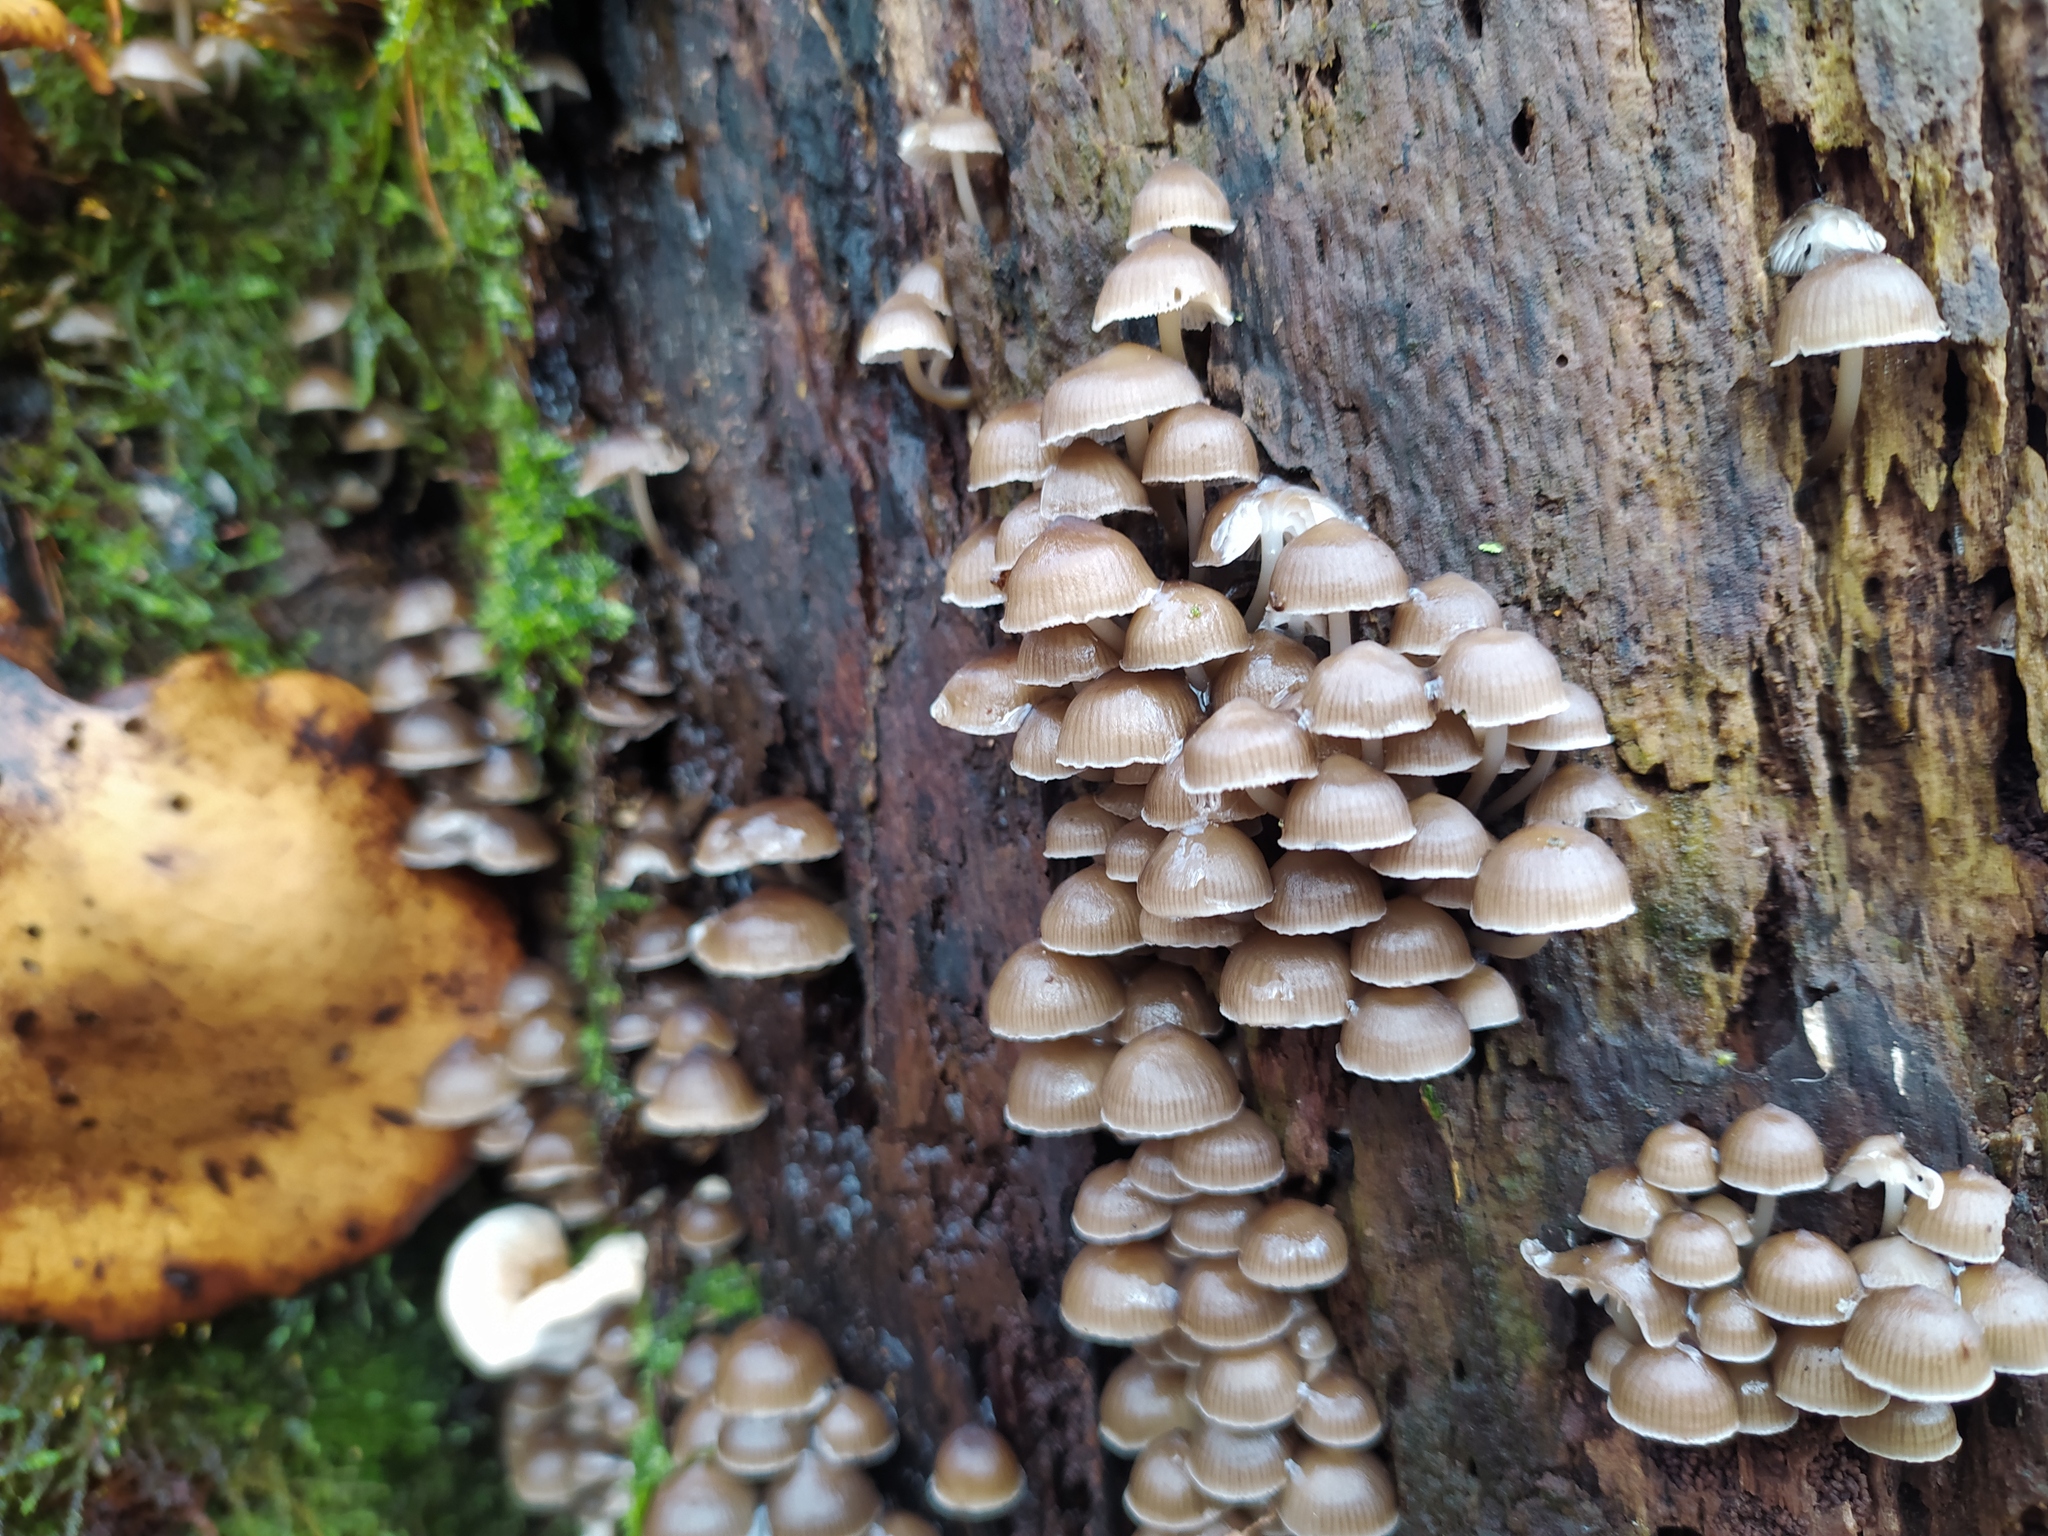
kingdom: Fungi
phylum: Basidiomycota
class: Agaricomycetes
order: Agaricales
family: Mycenaceae
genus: Mycena
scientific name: Mycena tintinnabulum
